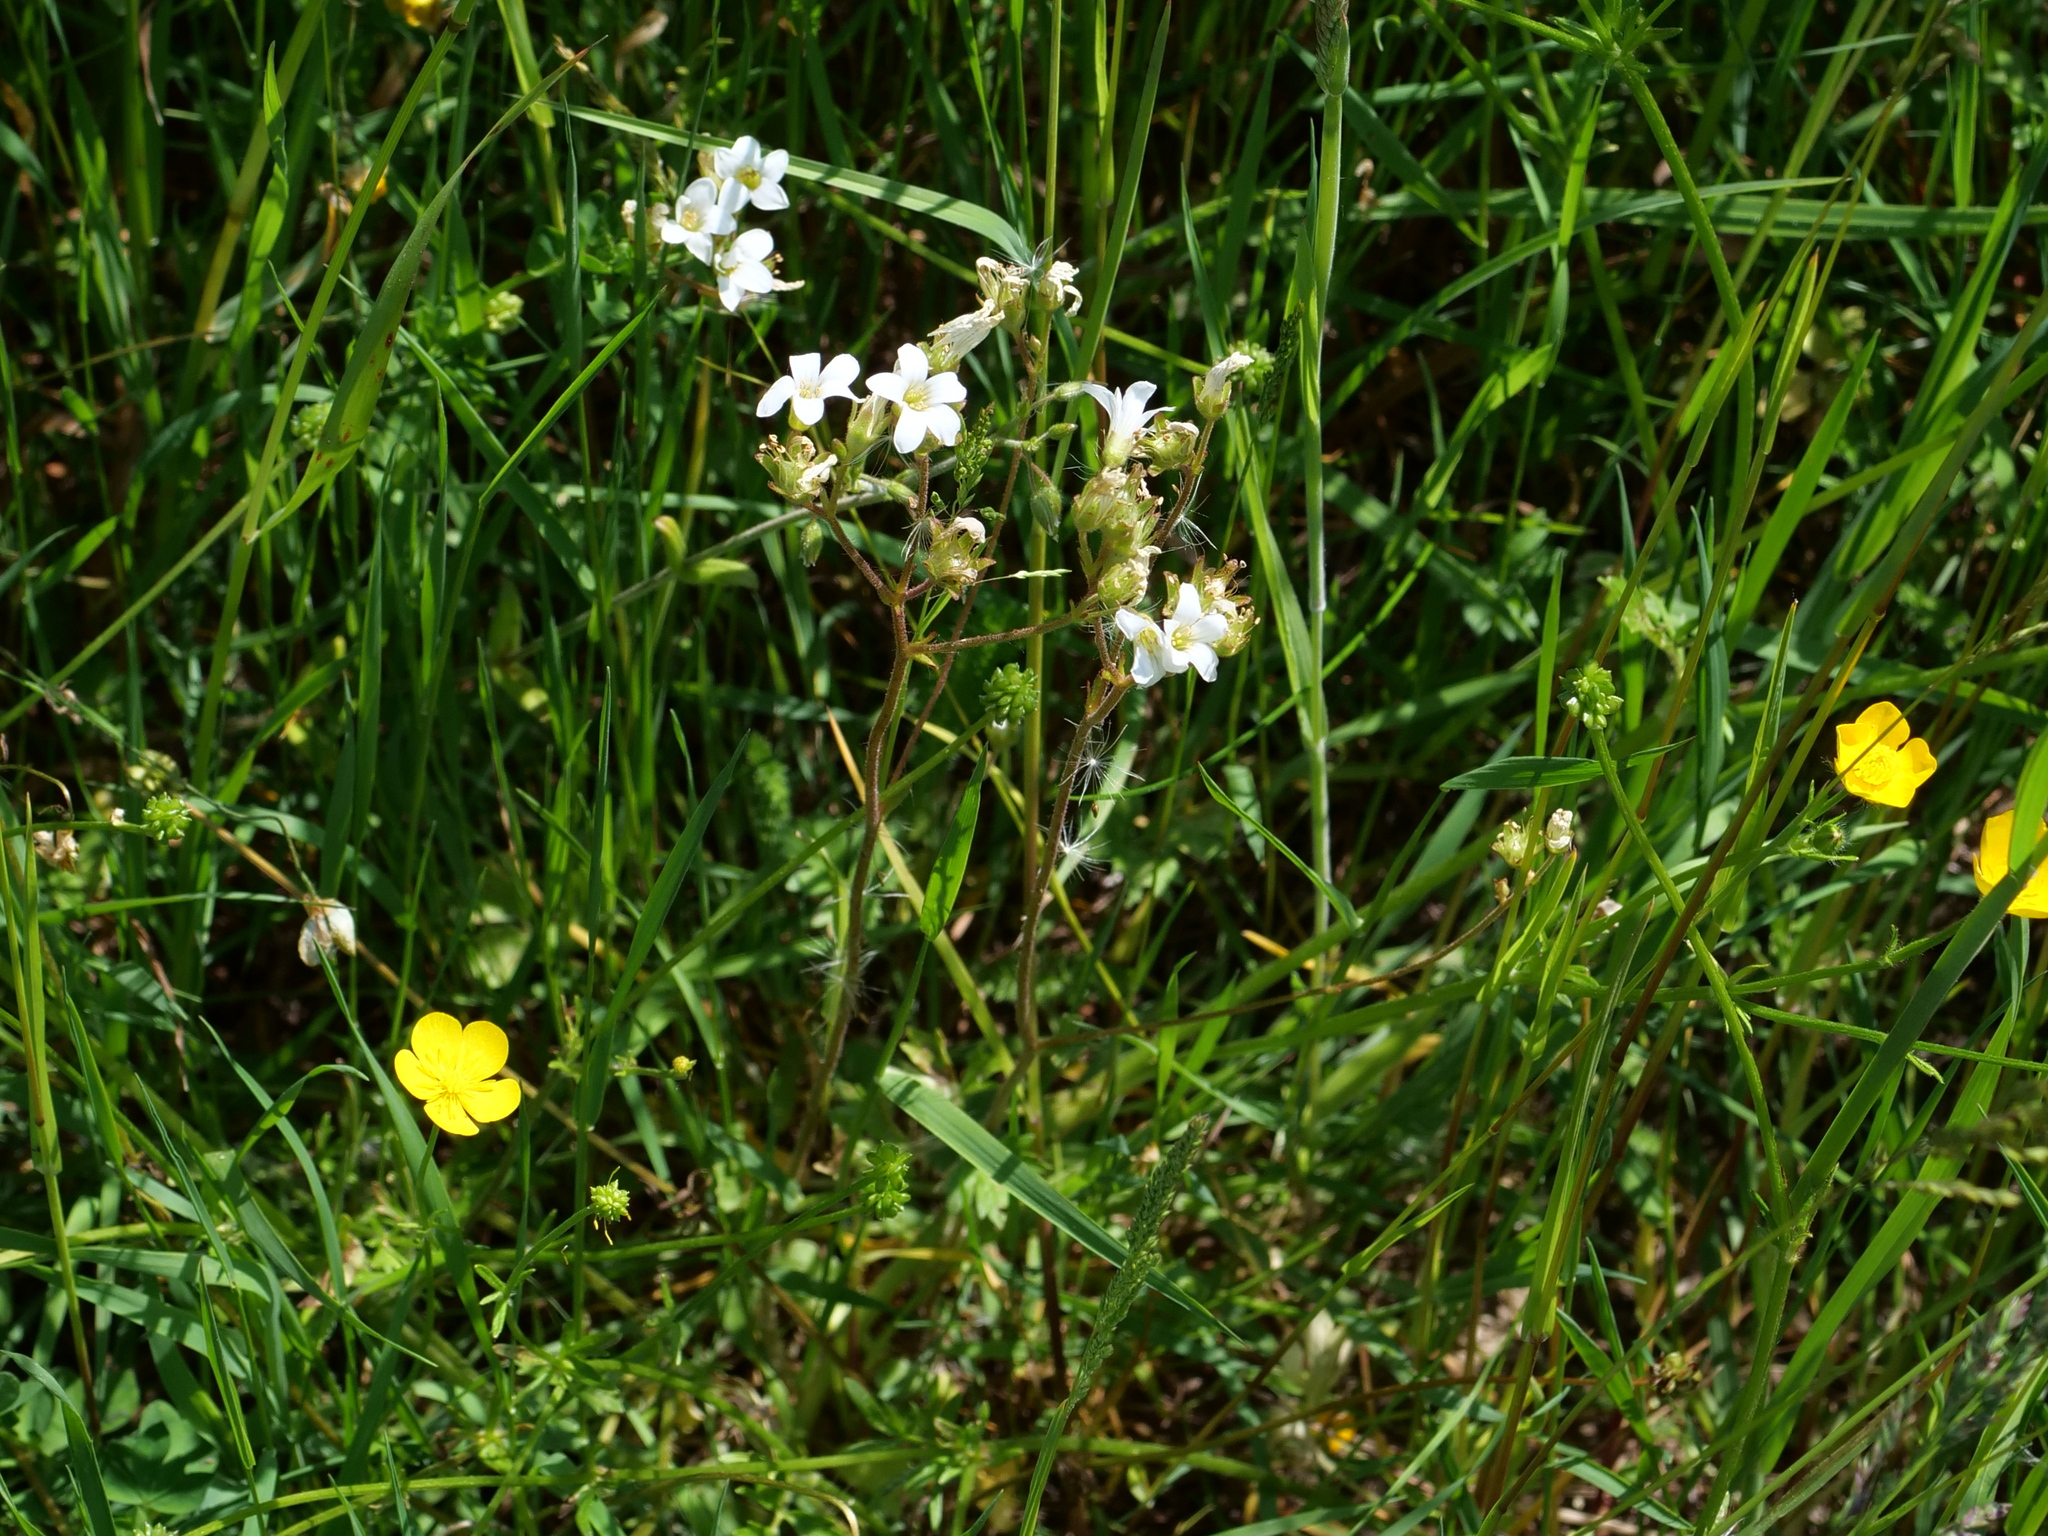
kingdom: Plantae
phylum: Tracheophyta
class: Magnoliopsida
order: Saxifragales
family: Saxifragaceae
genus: Saxifraga
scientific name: Saxifraga granulata
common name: Meadow saxifrage
